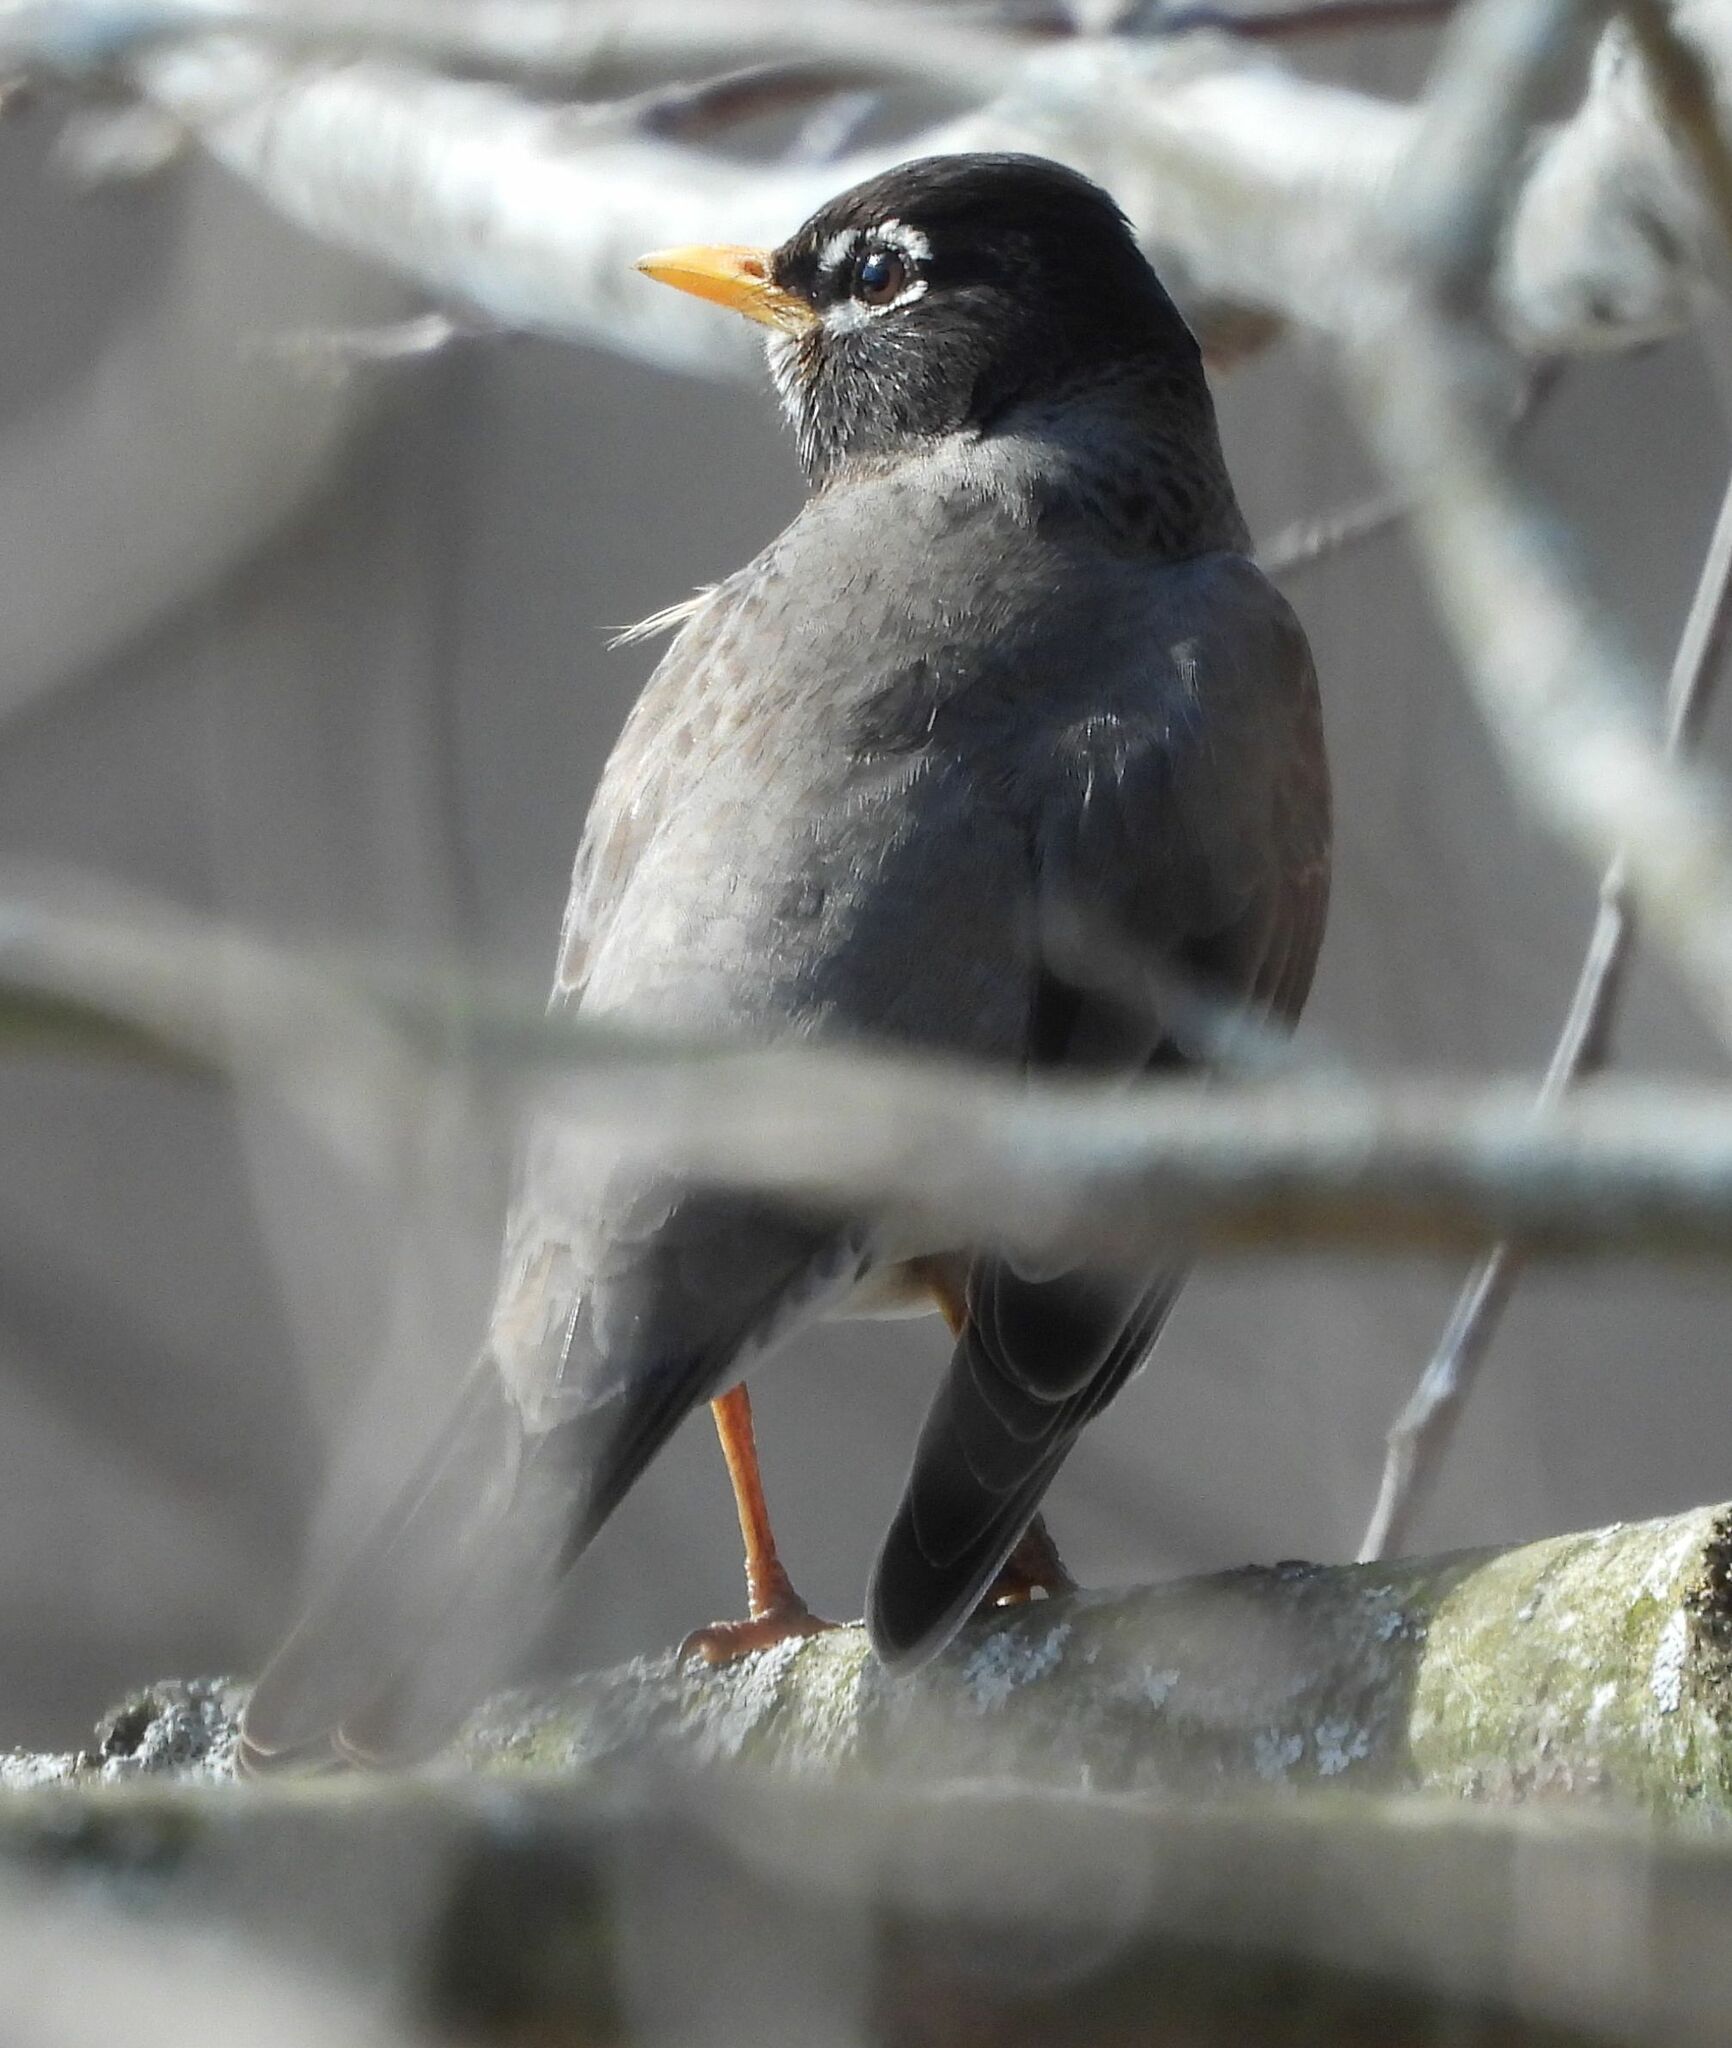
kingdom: Animalia
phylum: Chordata
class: Aves
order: Passeriformes
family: Turdidae
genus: Turdus
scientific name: Turdus migratorius
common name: American robin
